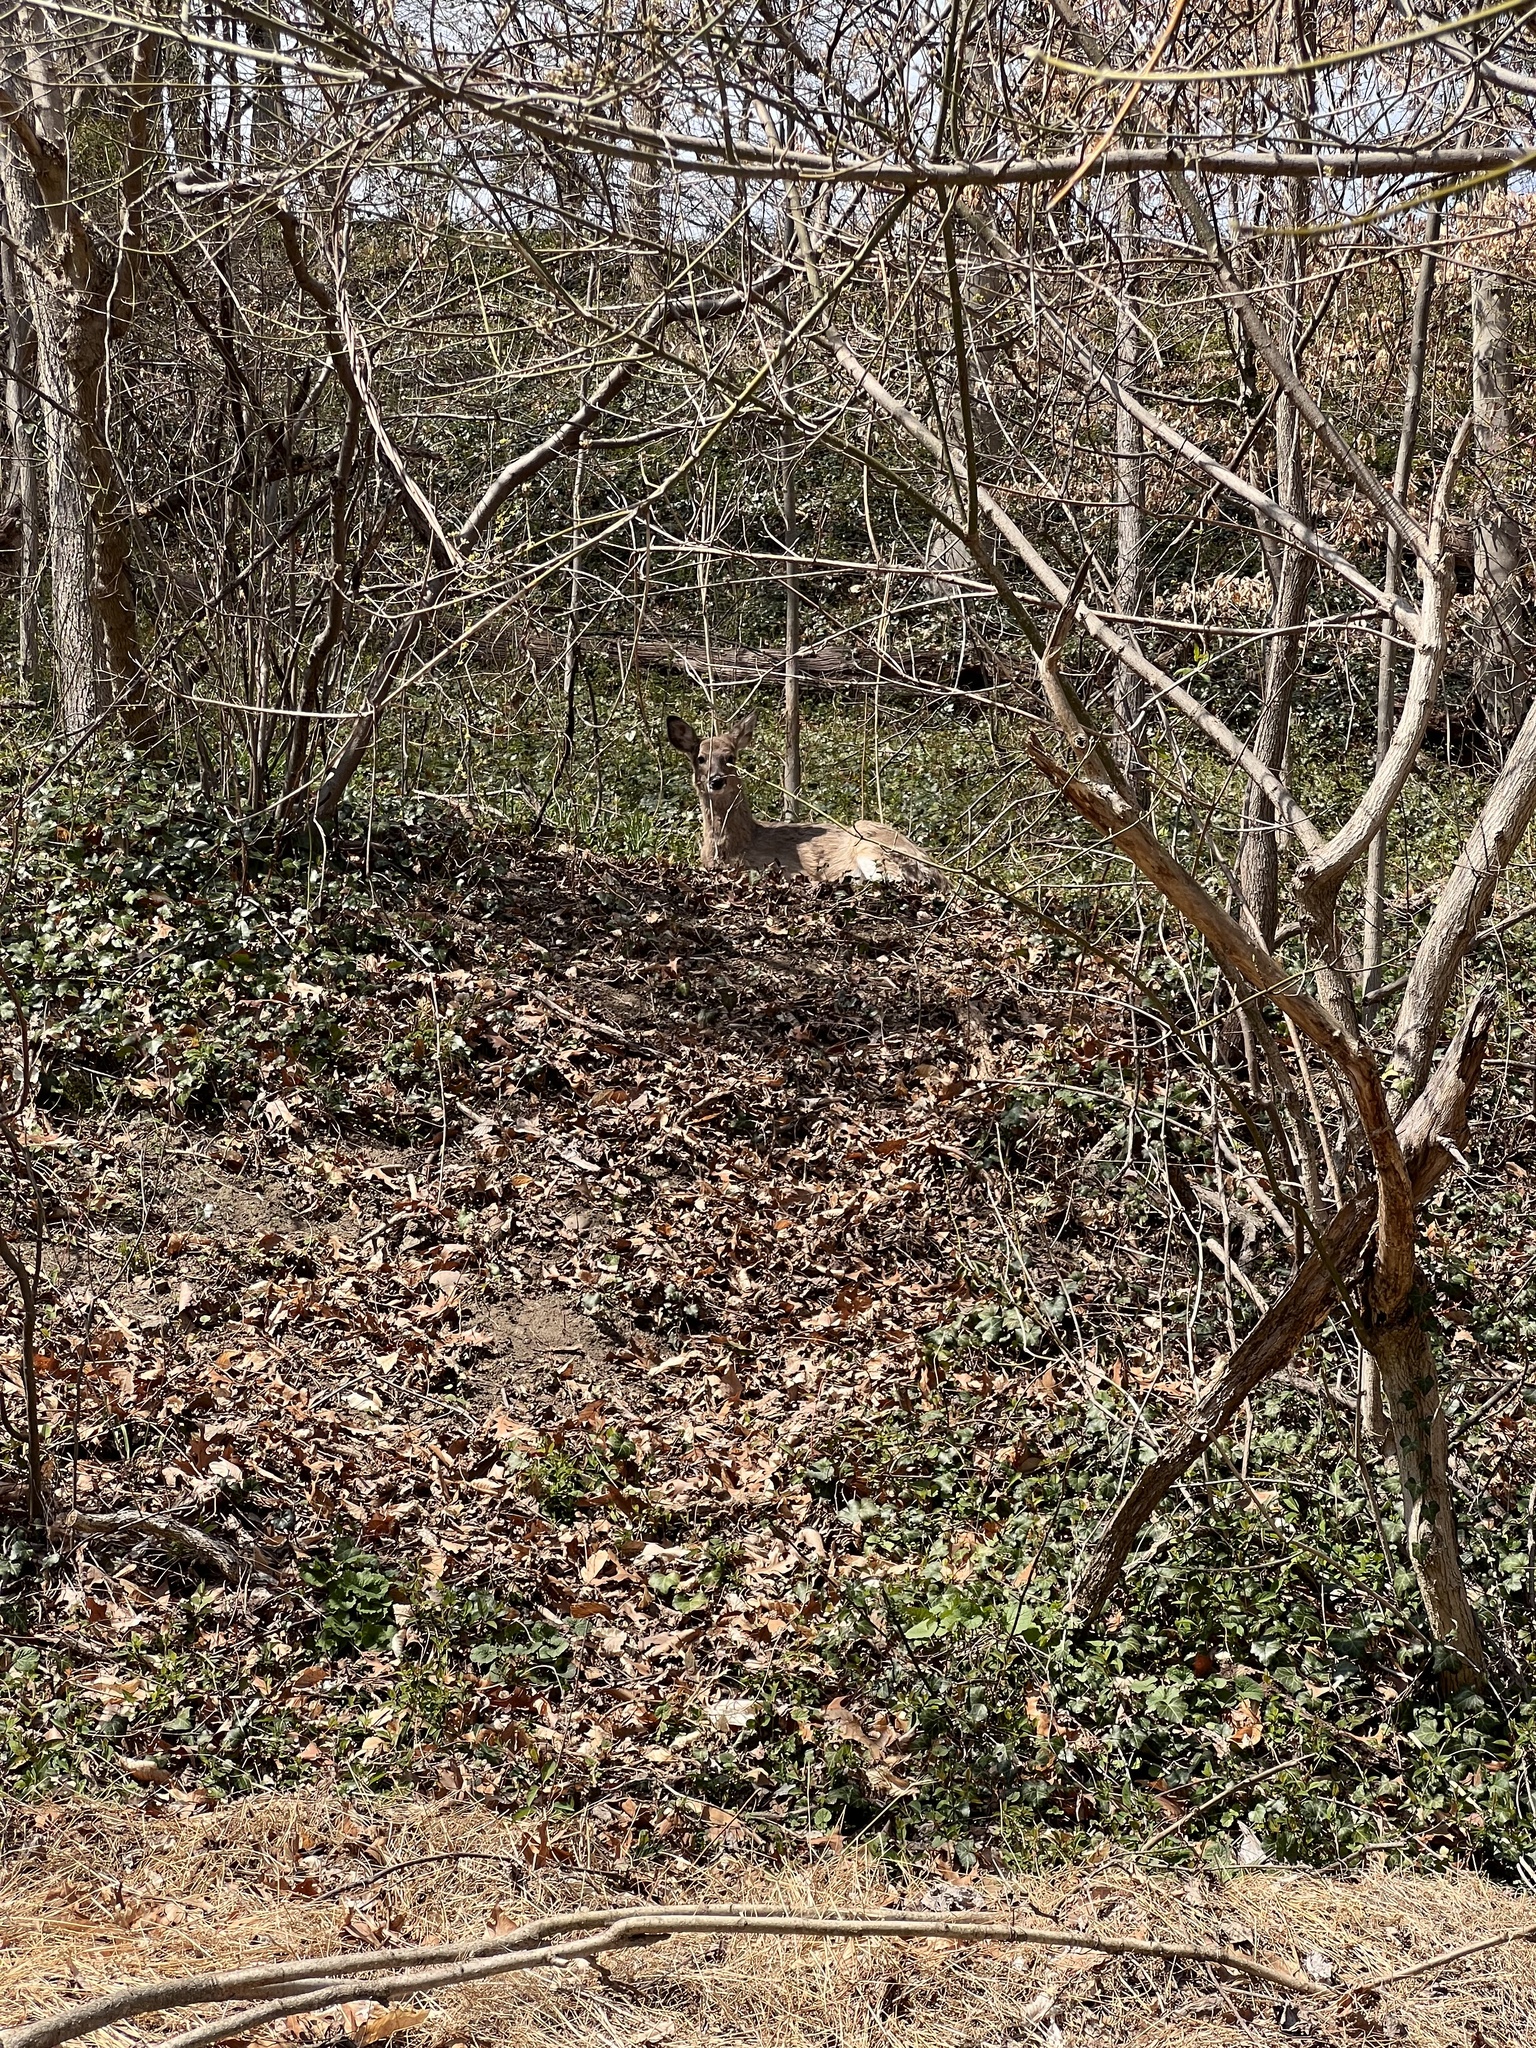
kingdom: Animalia
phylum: Chordata
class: Mammalia
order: Artiodactyla
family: Cervidae
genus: Odocoileus
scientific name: Odocoileus virginianus
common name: White-tailed deer
